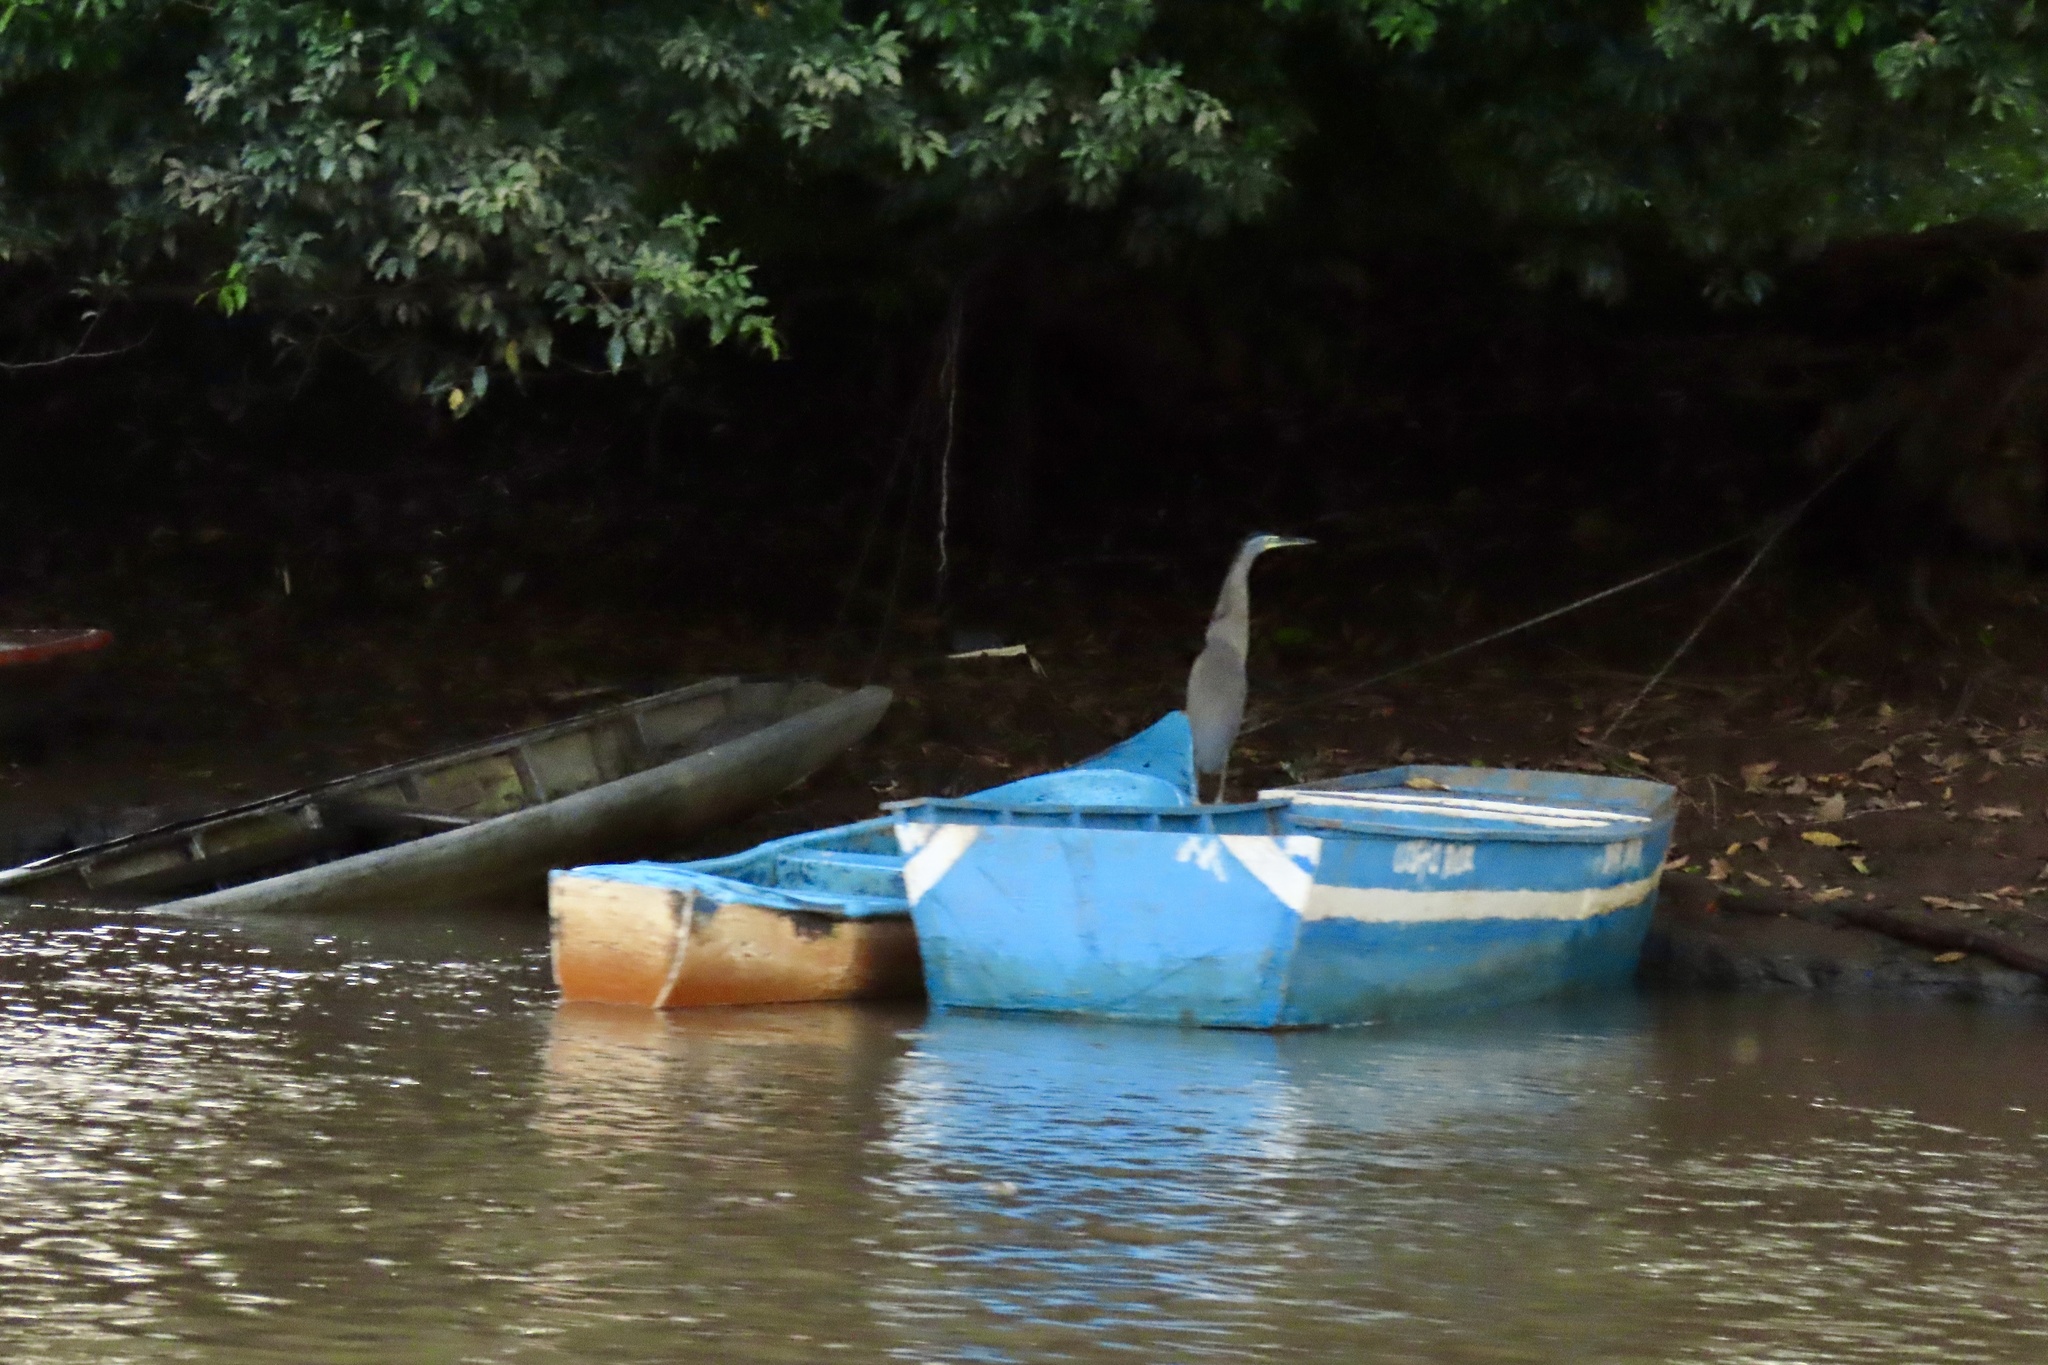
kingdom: Animalia
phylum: Chordata
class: Aves
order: Pelecaniformes
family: Ardeidae
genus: Tigrisoma
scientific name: Tigrisoma mexicanum
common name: Bare-throated tiger-heron
